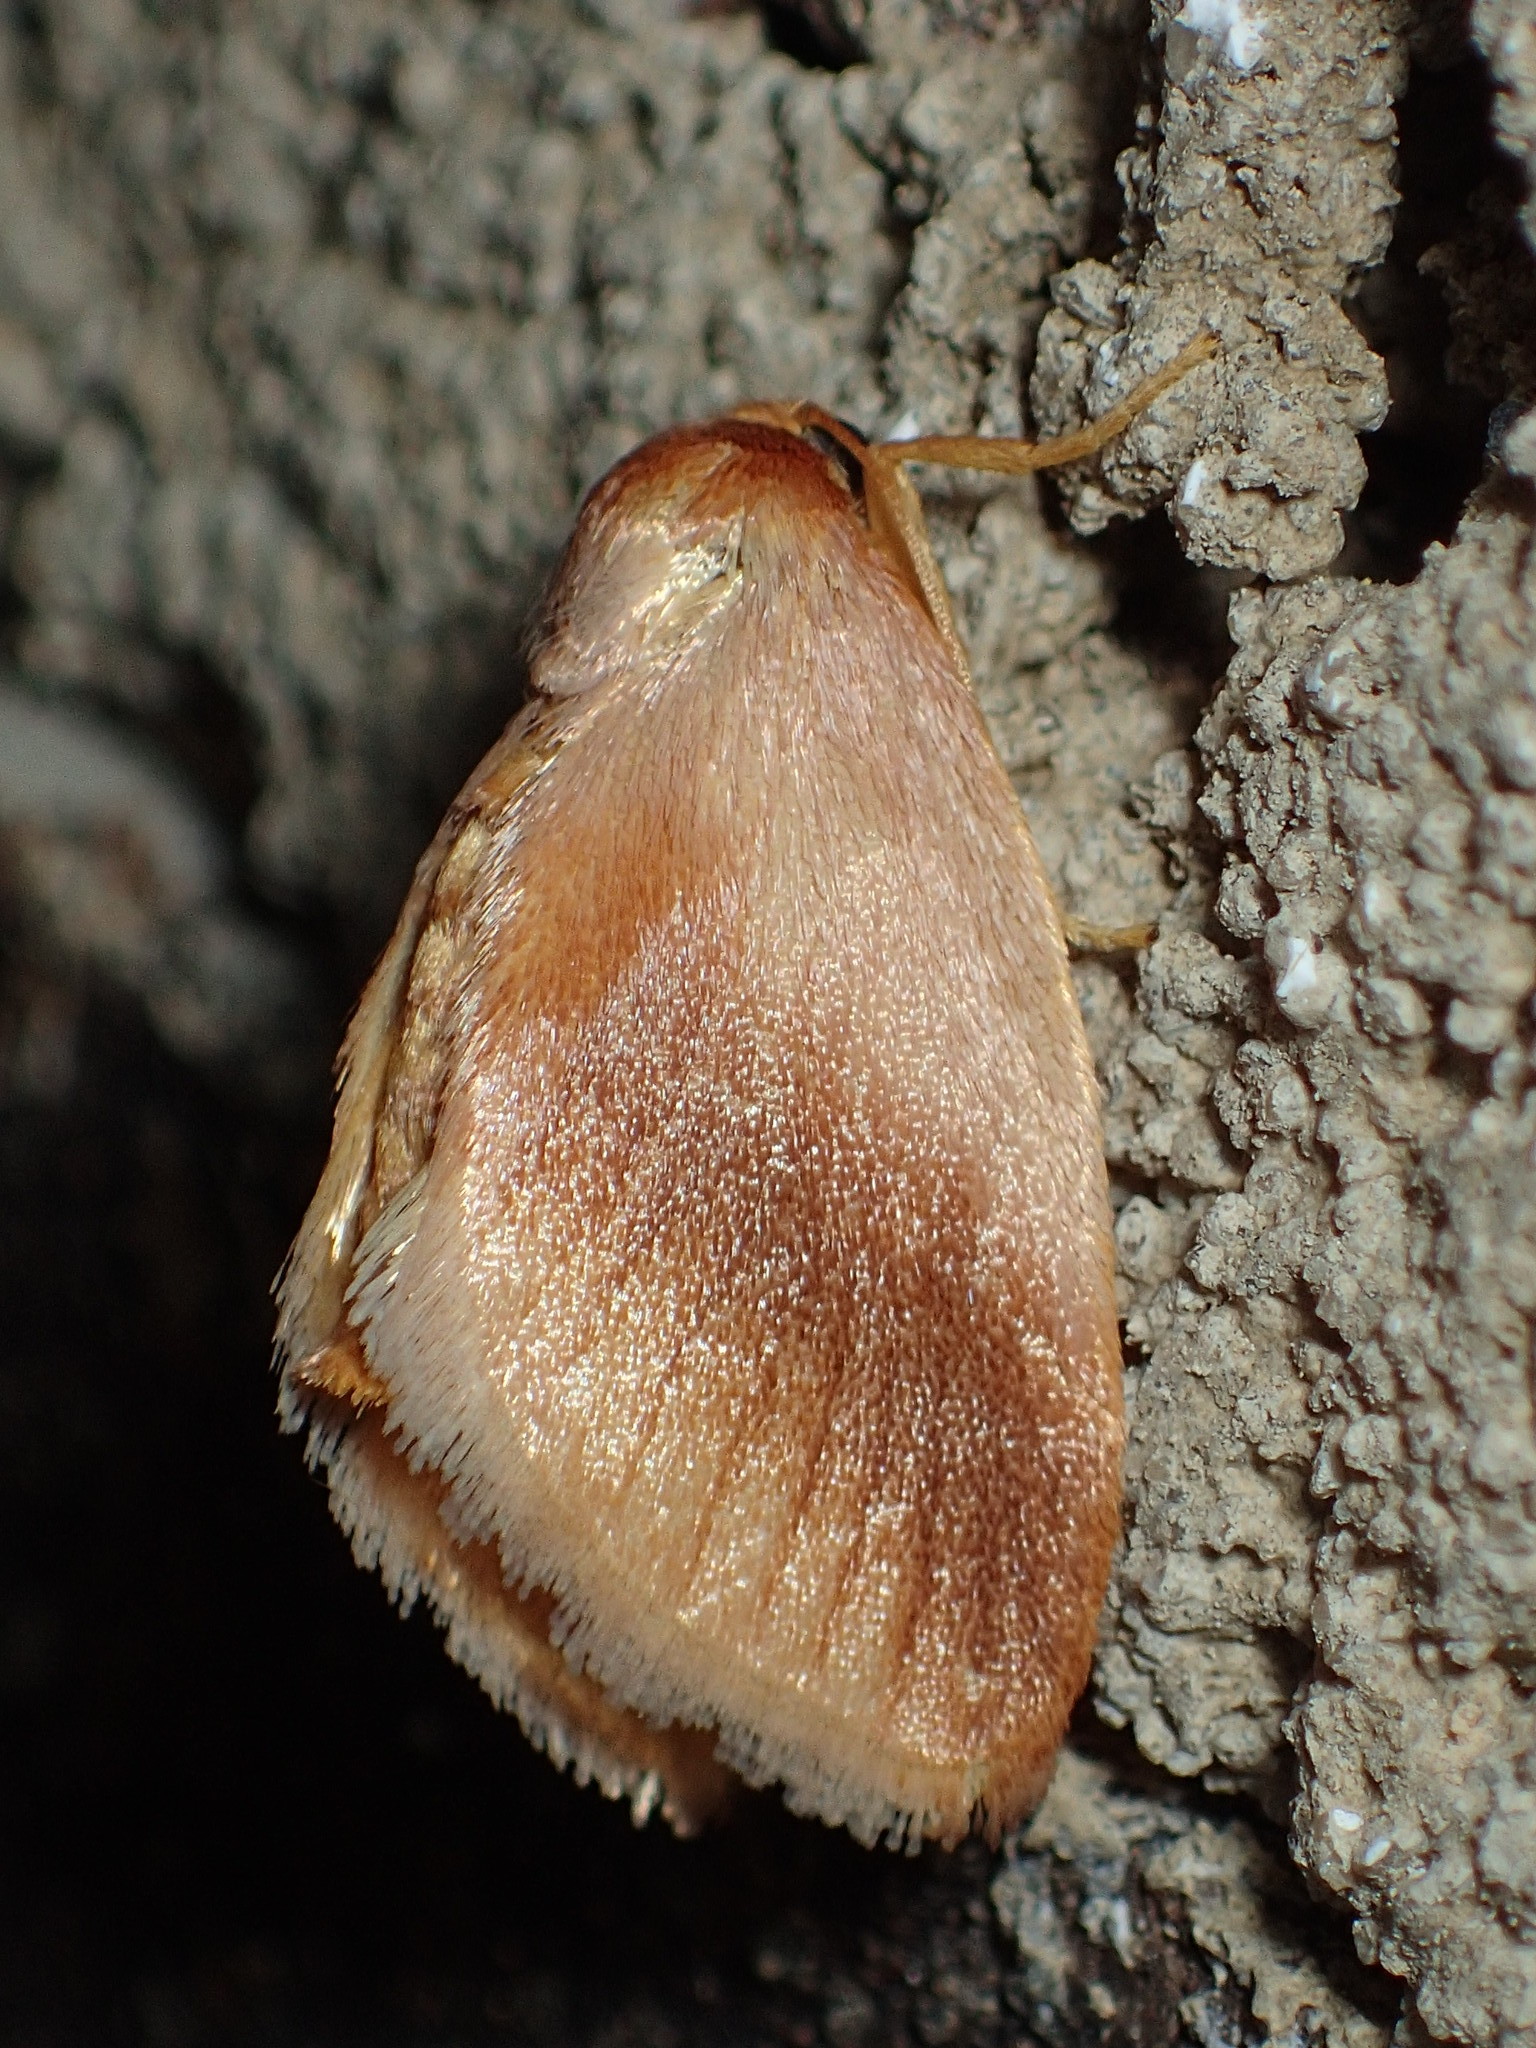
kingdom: Animalia
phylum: Arthropoda
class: Insecta
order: Lepidoptera
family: Limacodidae
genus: Tortricidia
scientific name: Tortricidia testacea
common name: Early button slug moth
